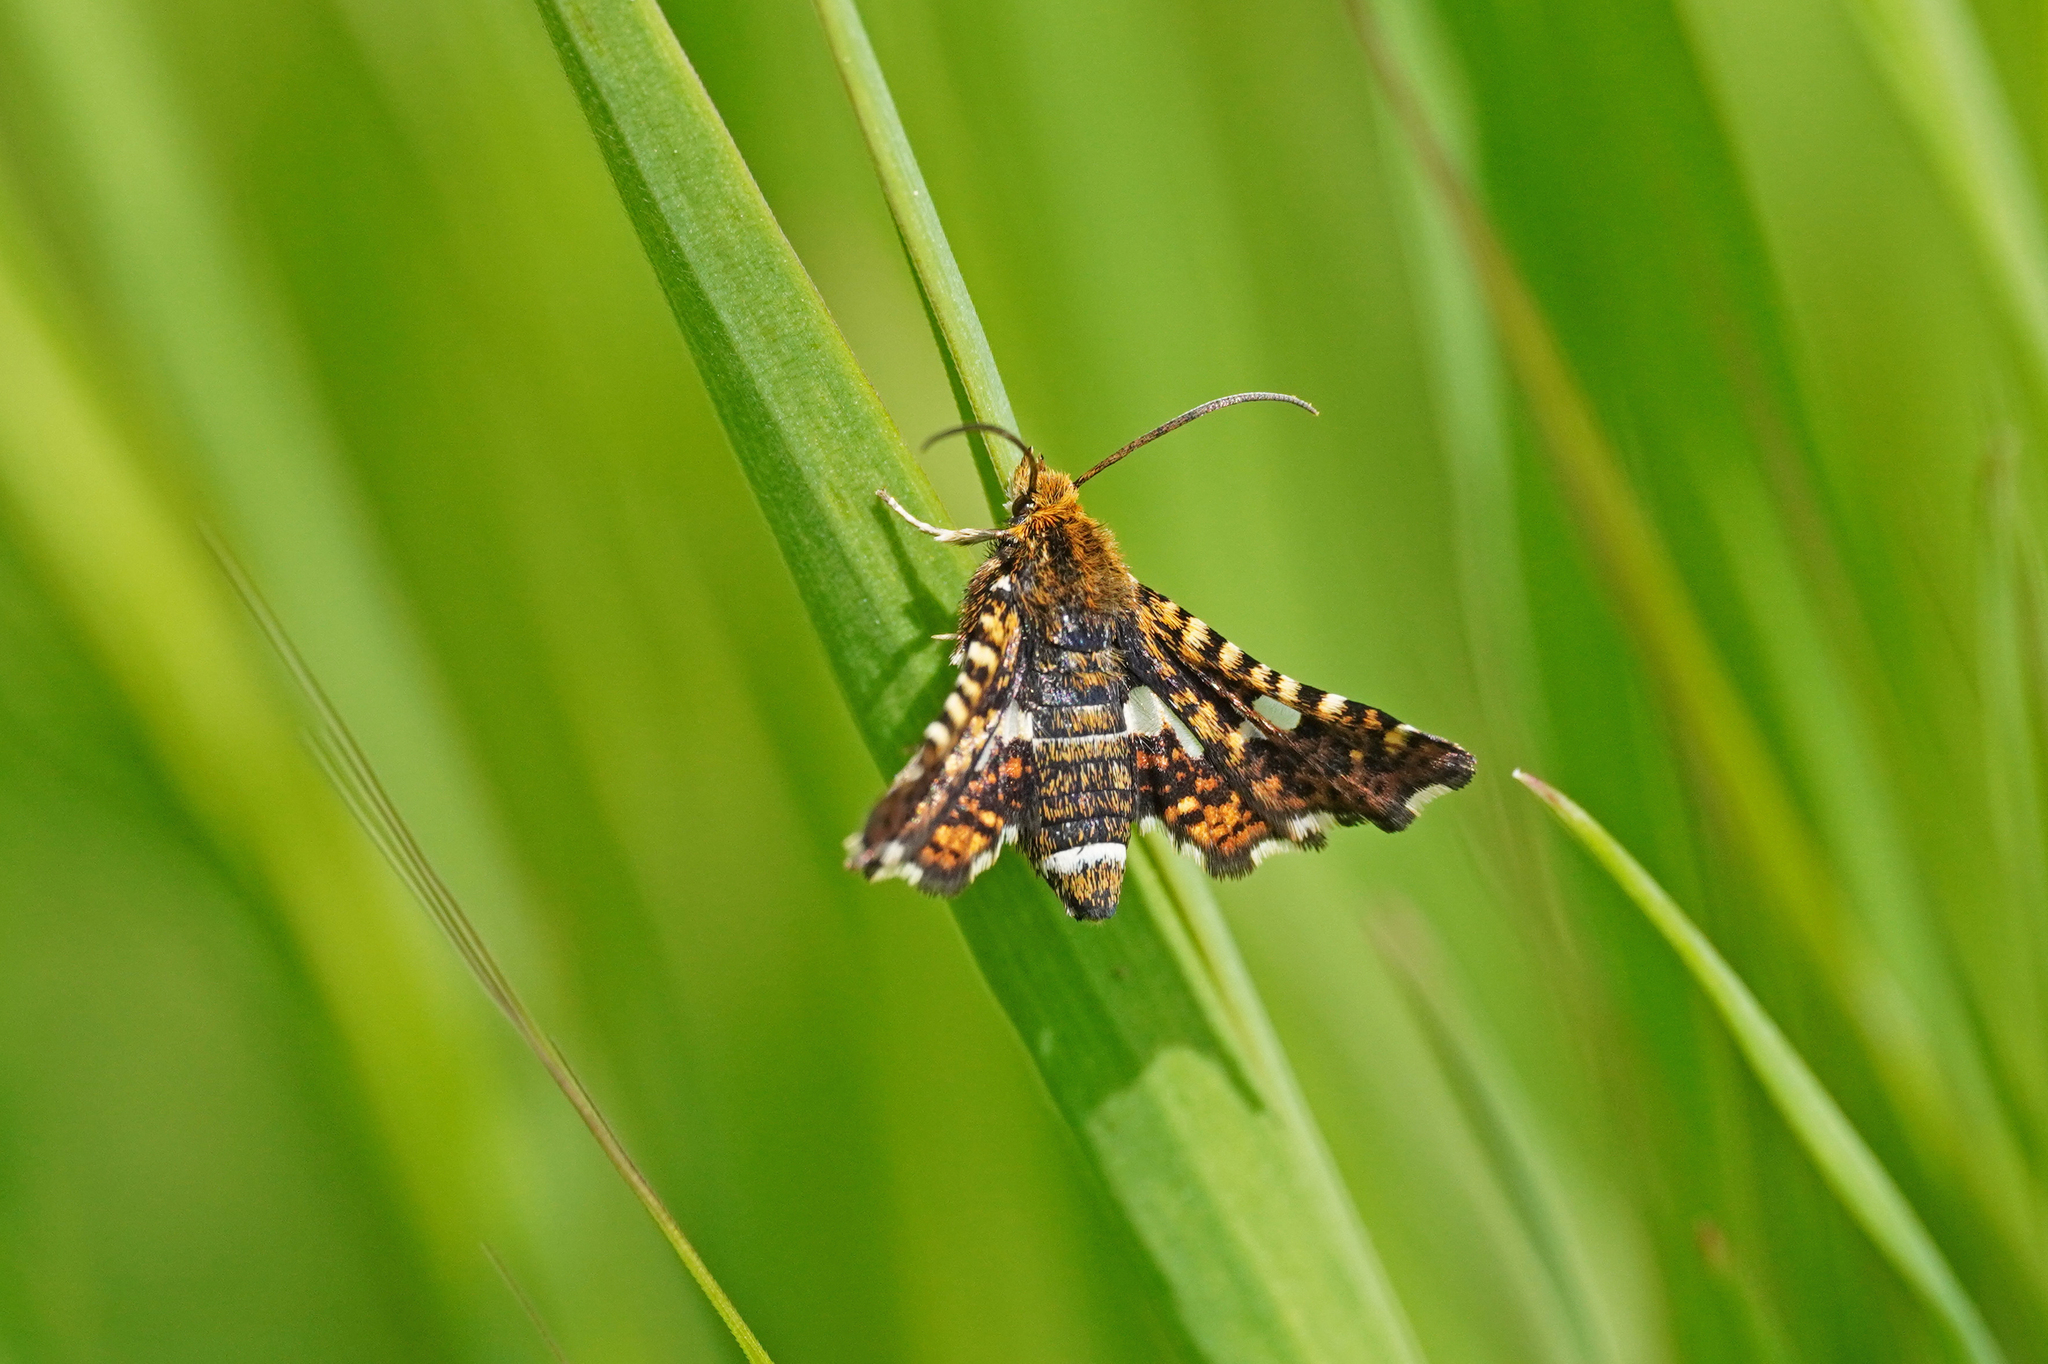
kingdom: Animalia
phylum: Arthropoda
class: Insecta
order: Lepidoptera
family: Thyrididae
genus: Thyris
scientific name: Thyris fenestrella
